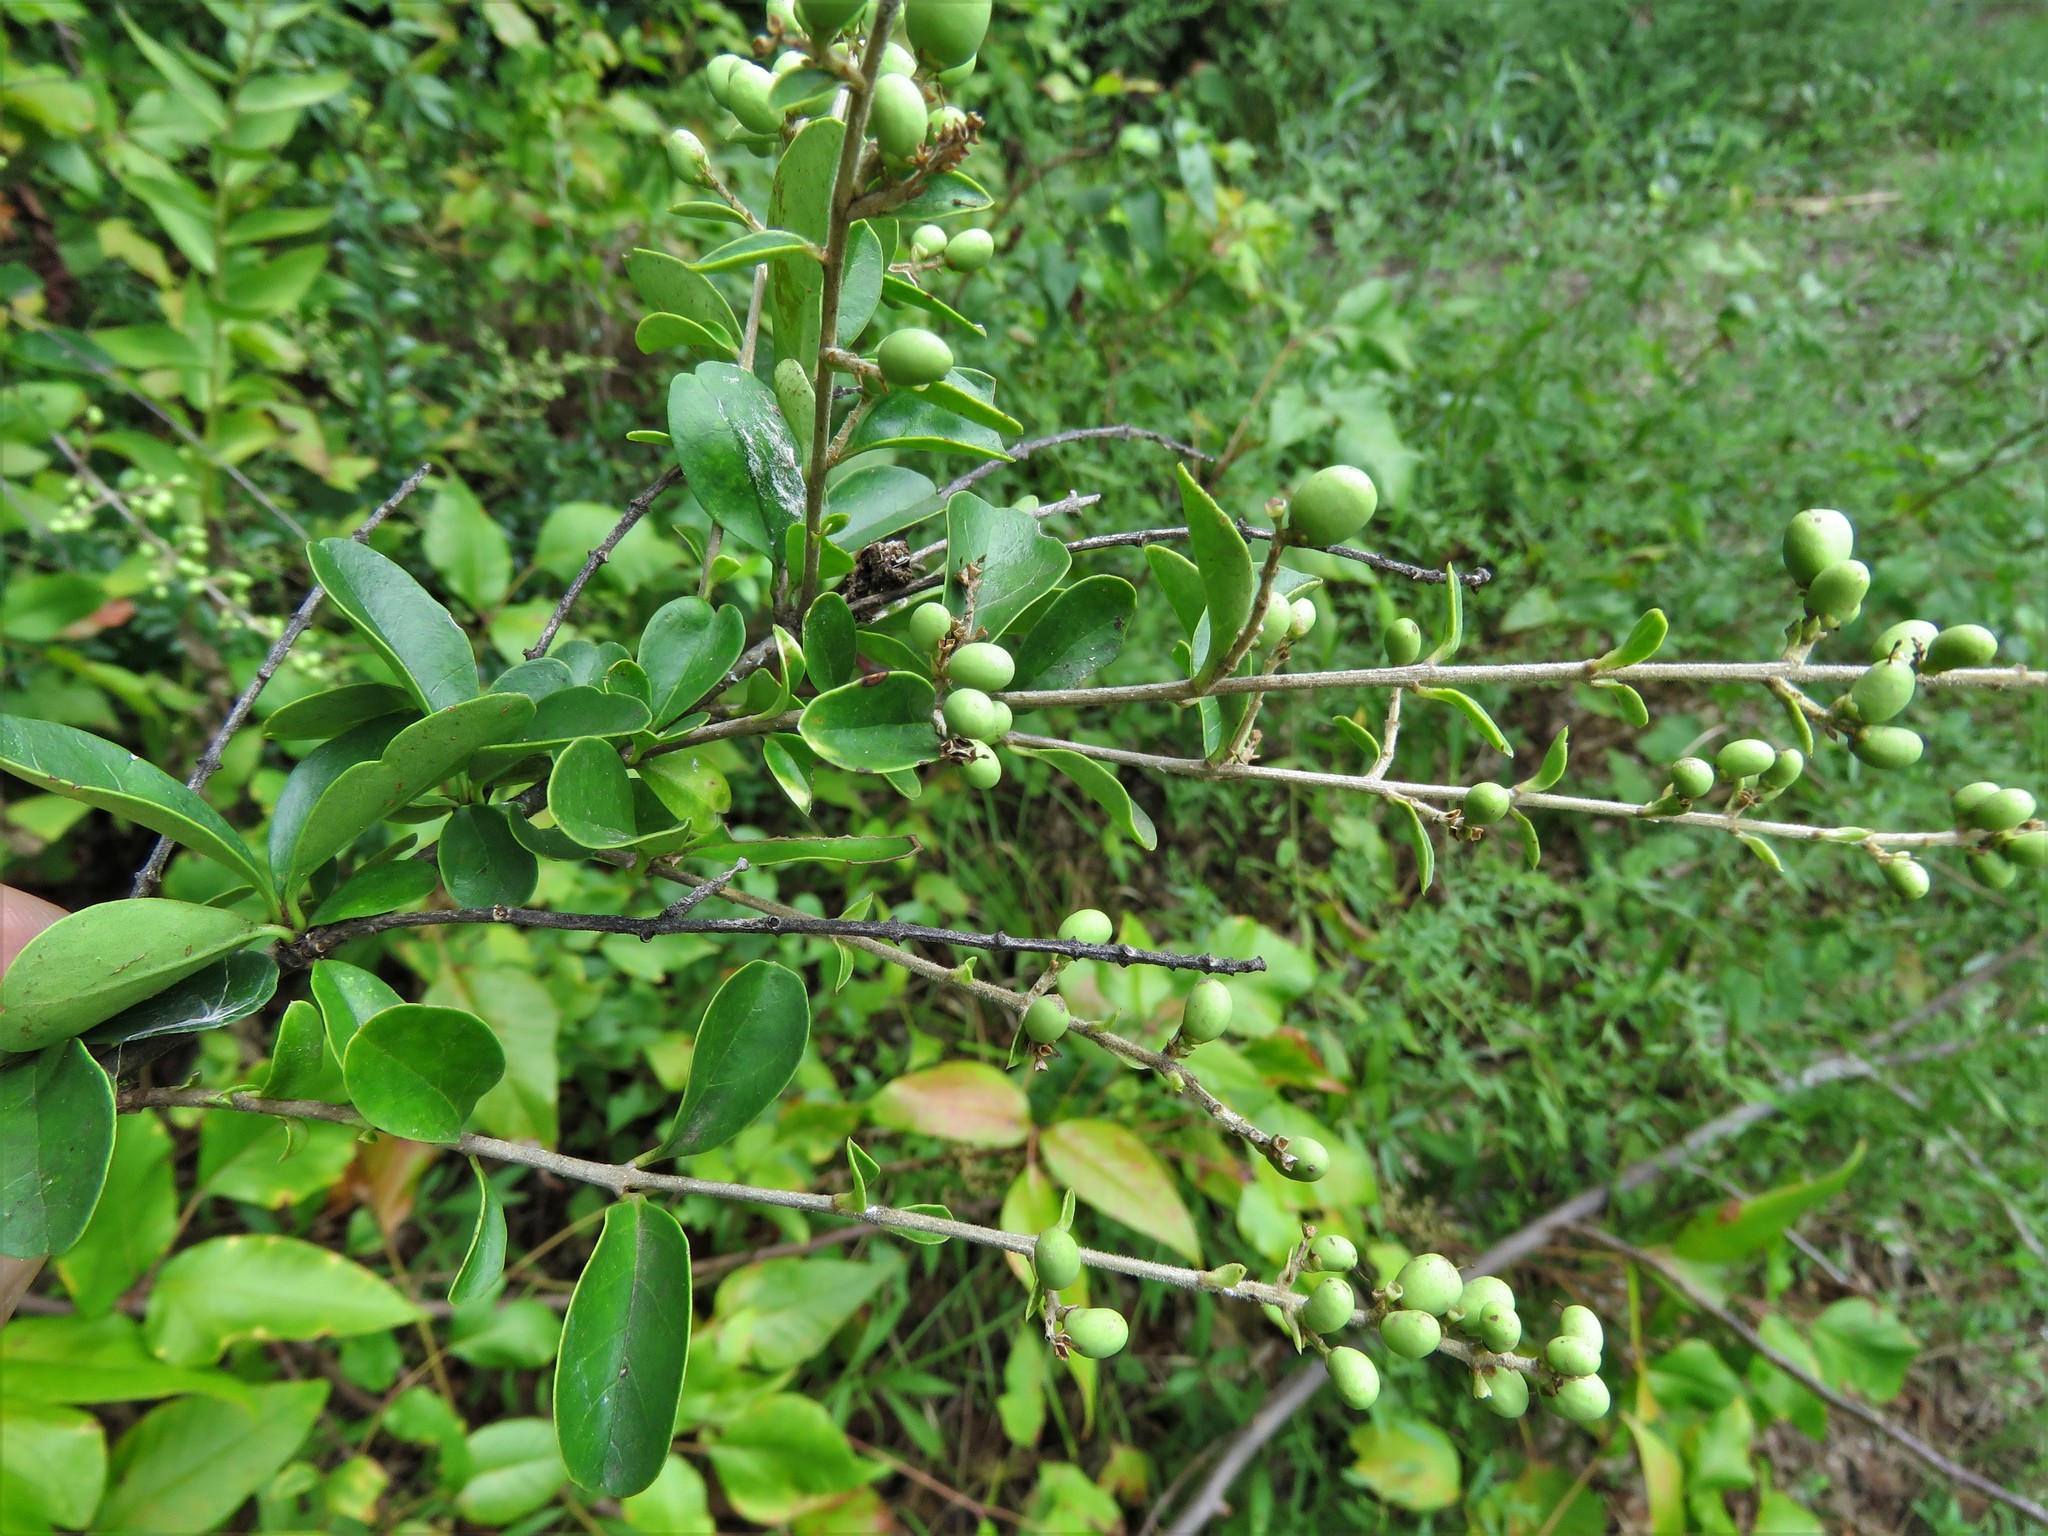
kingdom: Plantae
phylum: Tracheophyta
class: Magnoliopsida
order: Lamiales
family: Oleaceae
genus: Ligustrum
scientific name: Ligustrum quihoui
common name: Waxyleaf privet
